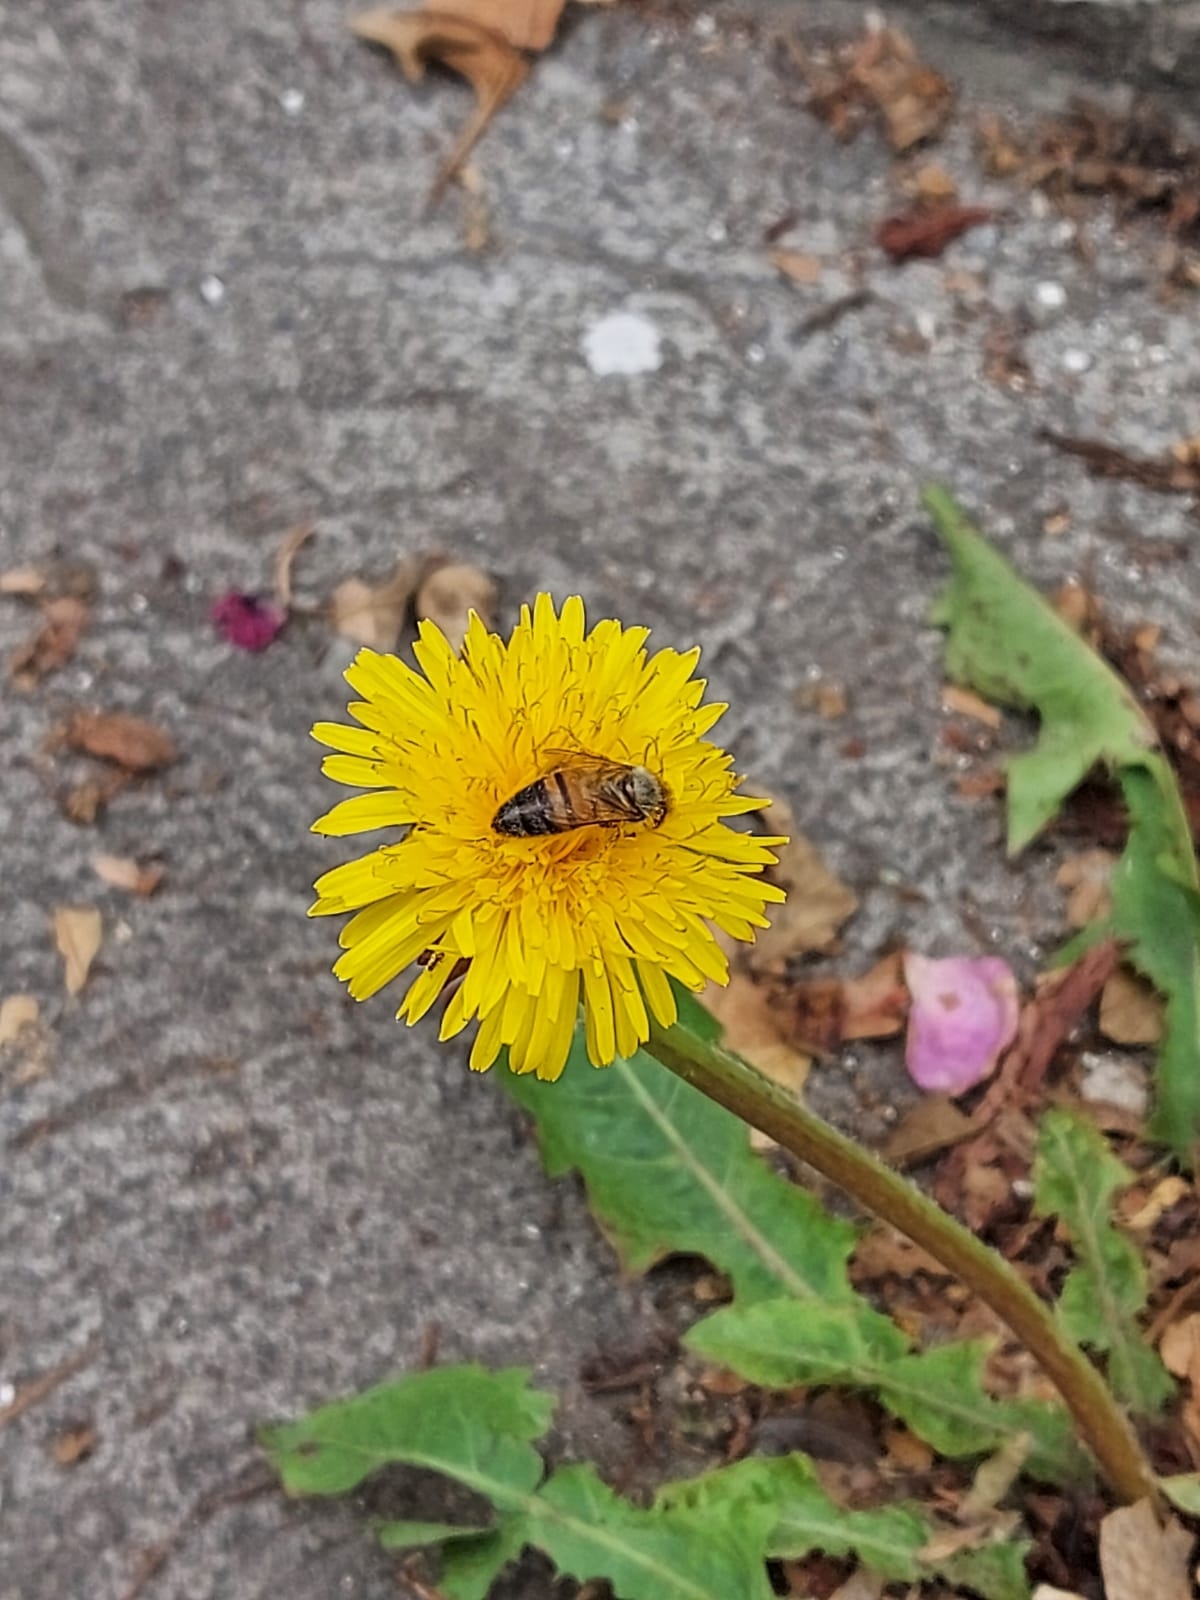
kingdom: Animalia
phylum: Arthropoda
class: Insecta
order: Hymenoptera
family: Apidae
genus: Apis
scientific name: Apis mellifera
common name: Honey bee
